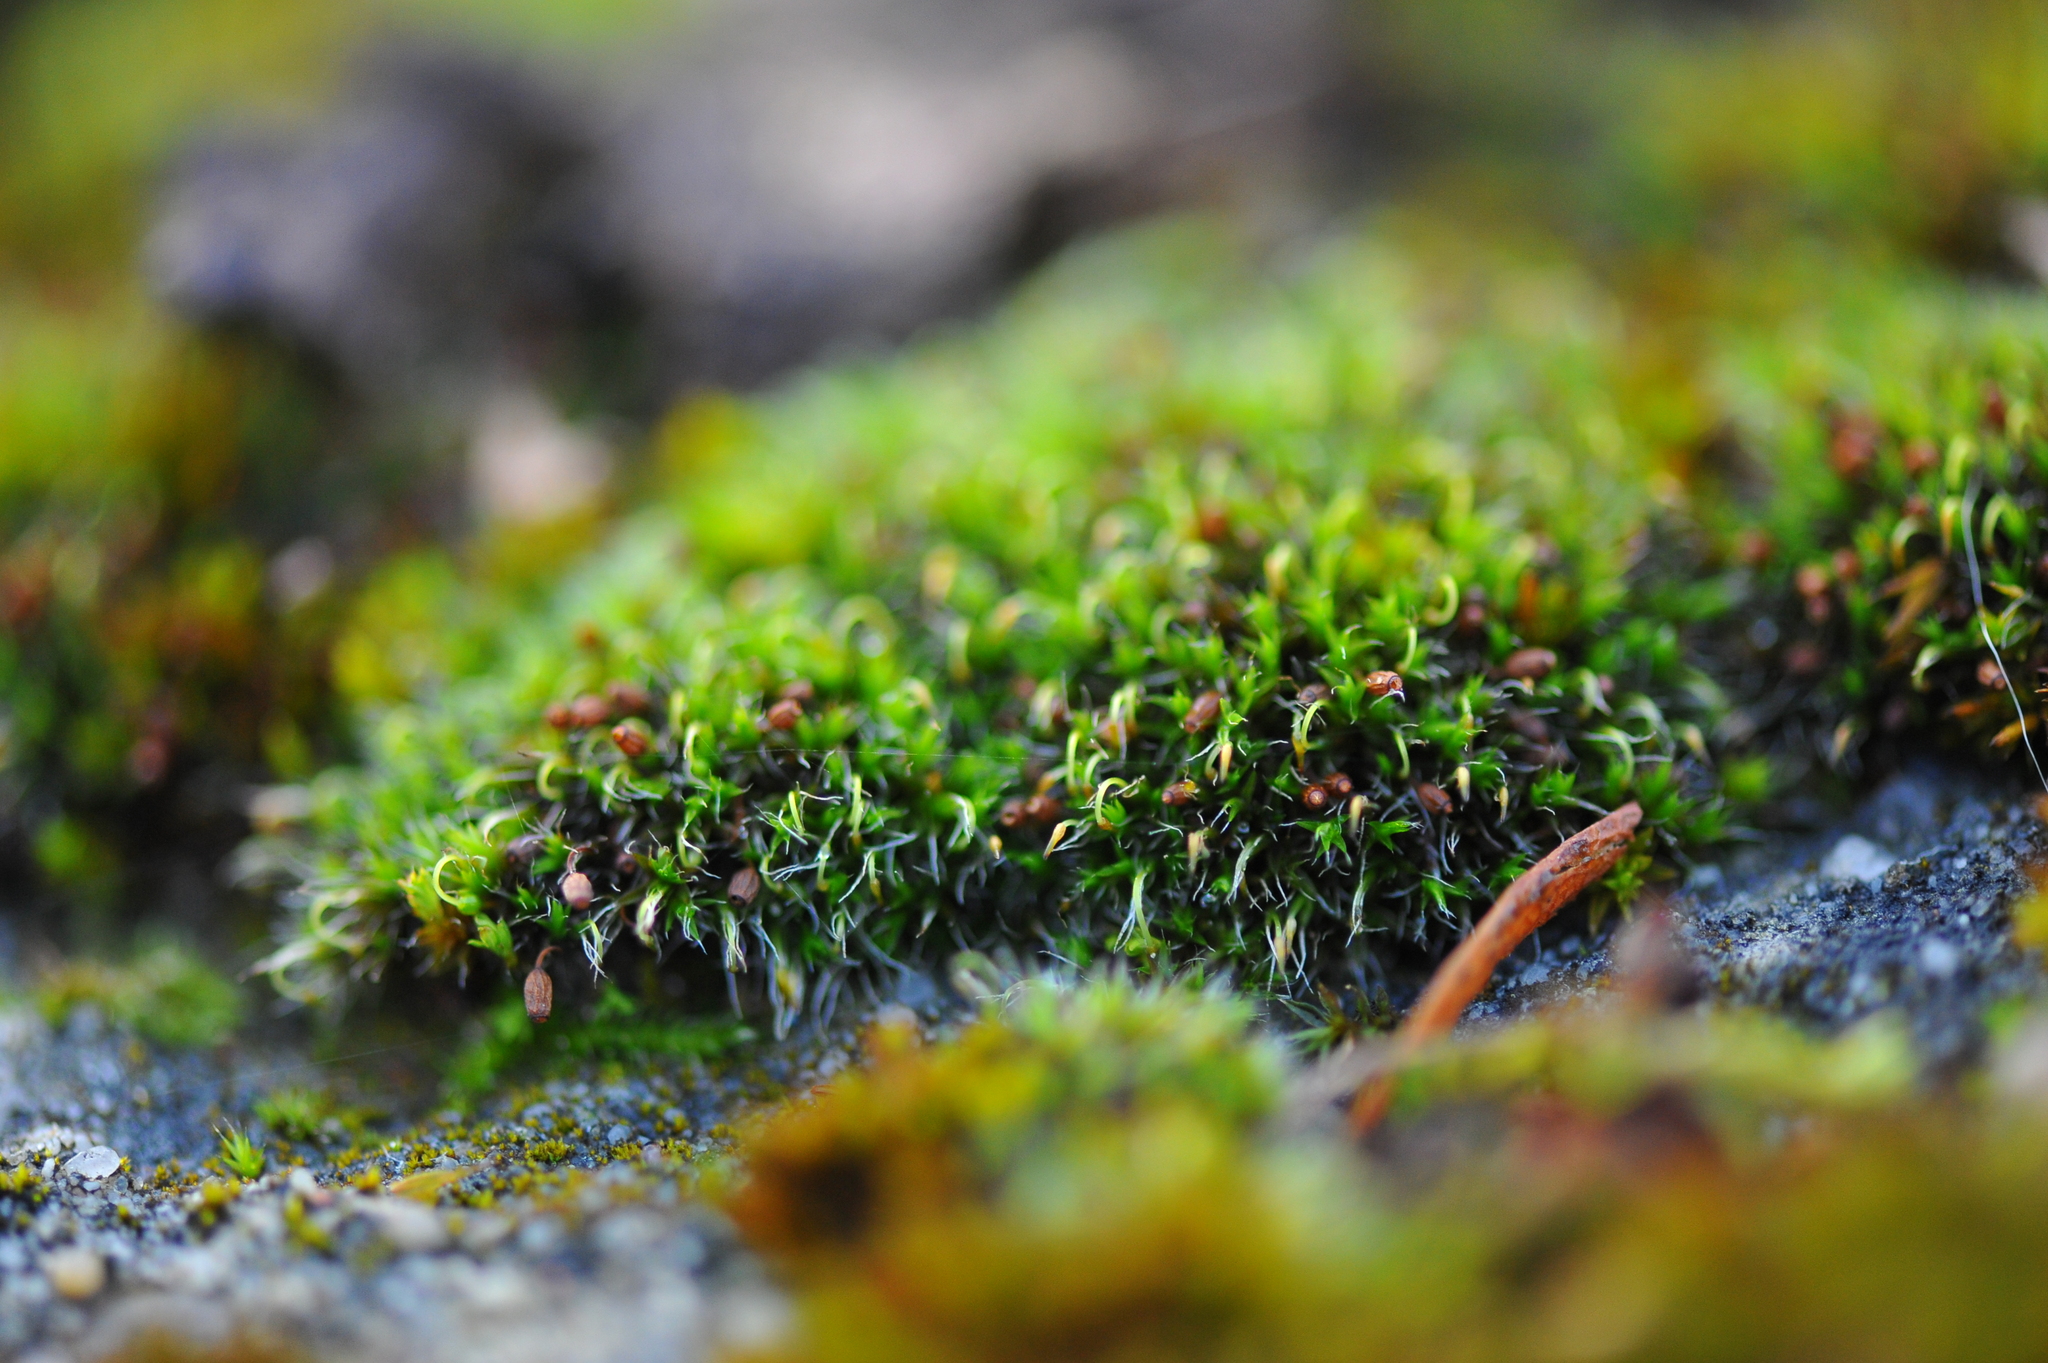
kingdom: Plantae
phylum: Bryophyta
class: Bryopsida
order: Grimmiales
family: Grimmiaceae
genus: Grimmia
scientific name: Grimmia pulvinata
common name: Grey-cushioned grimmia
